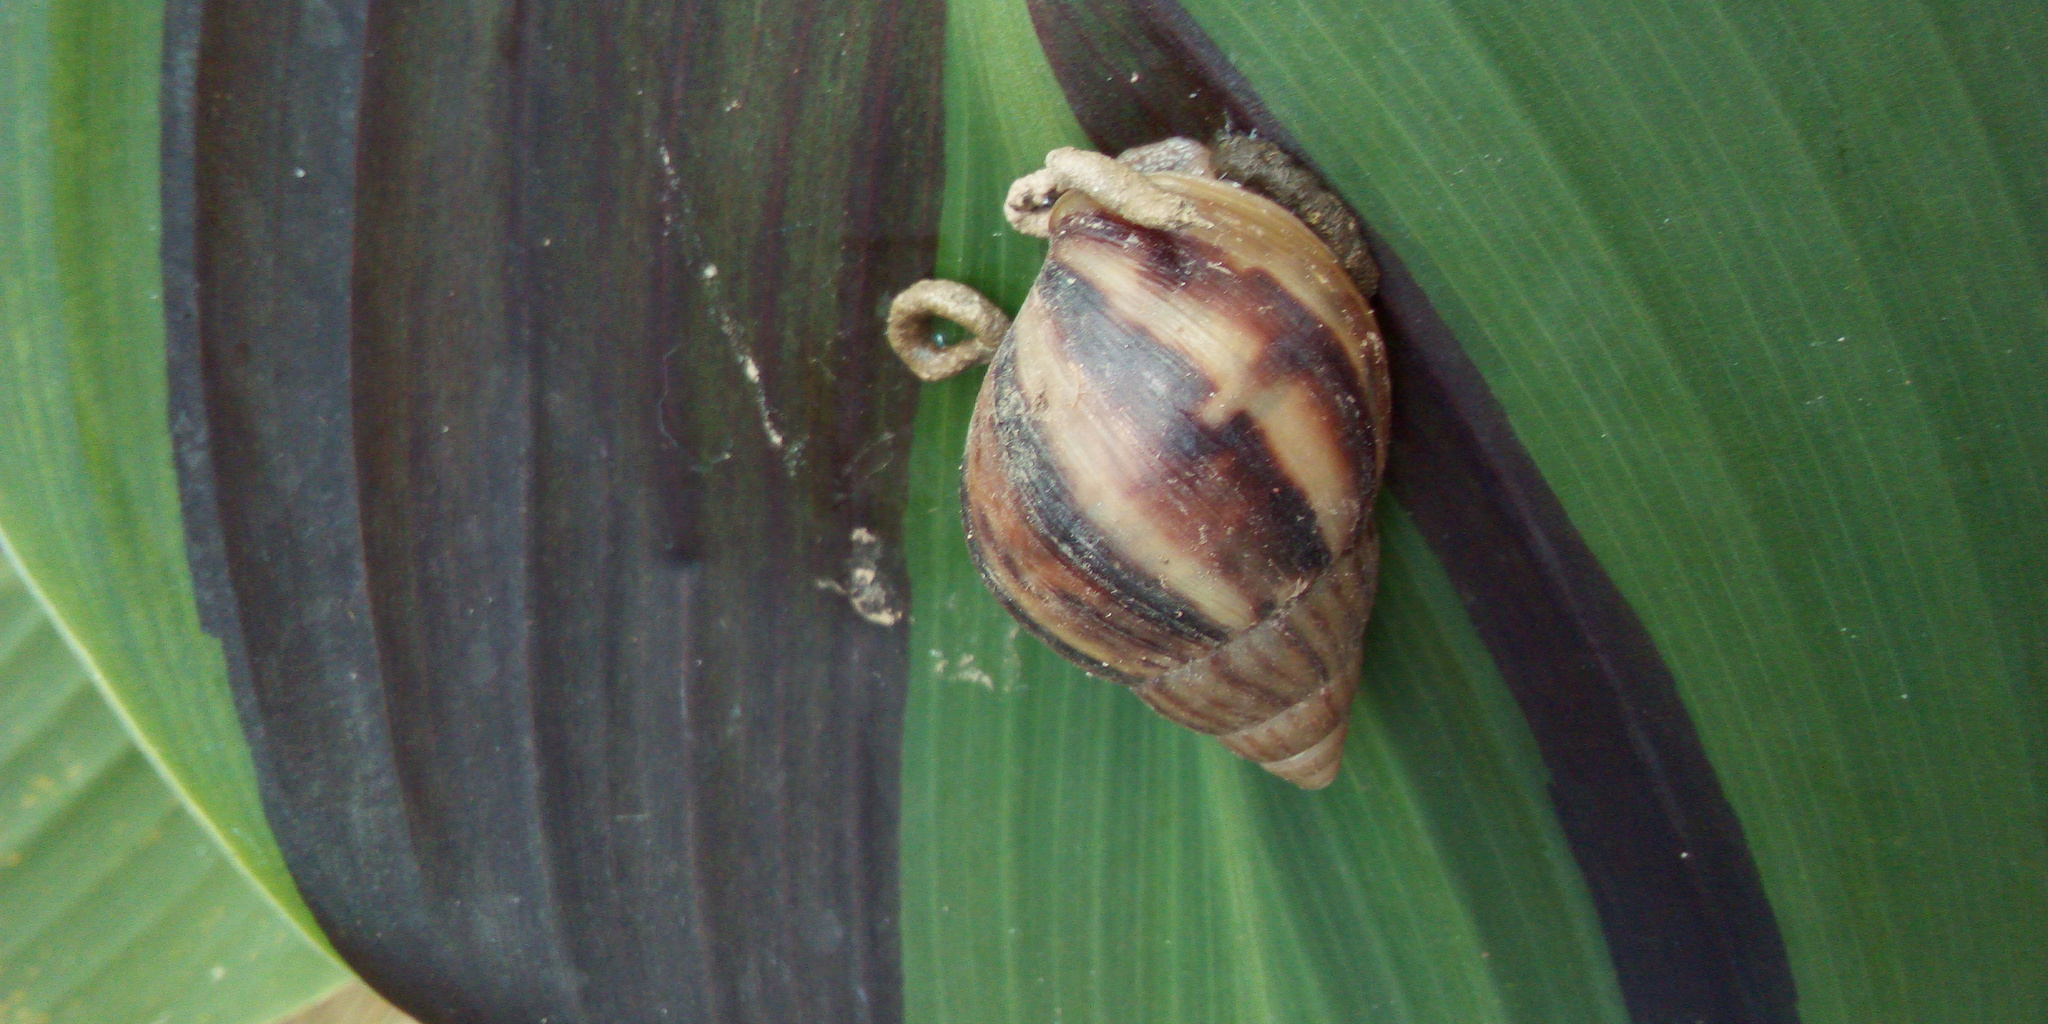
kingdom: Animalia
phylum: Mollusca
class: Gastropoda
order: Stylommatophora
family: Achatinidae
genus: Lissachatina
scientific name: Lissachatina fulica
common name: Giant african snail
